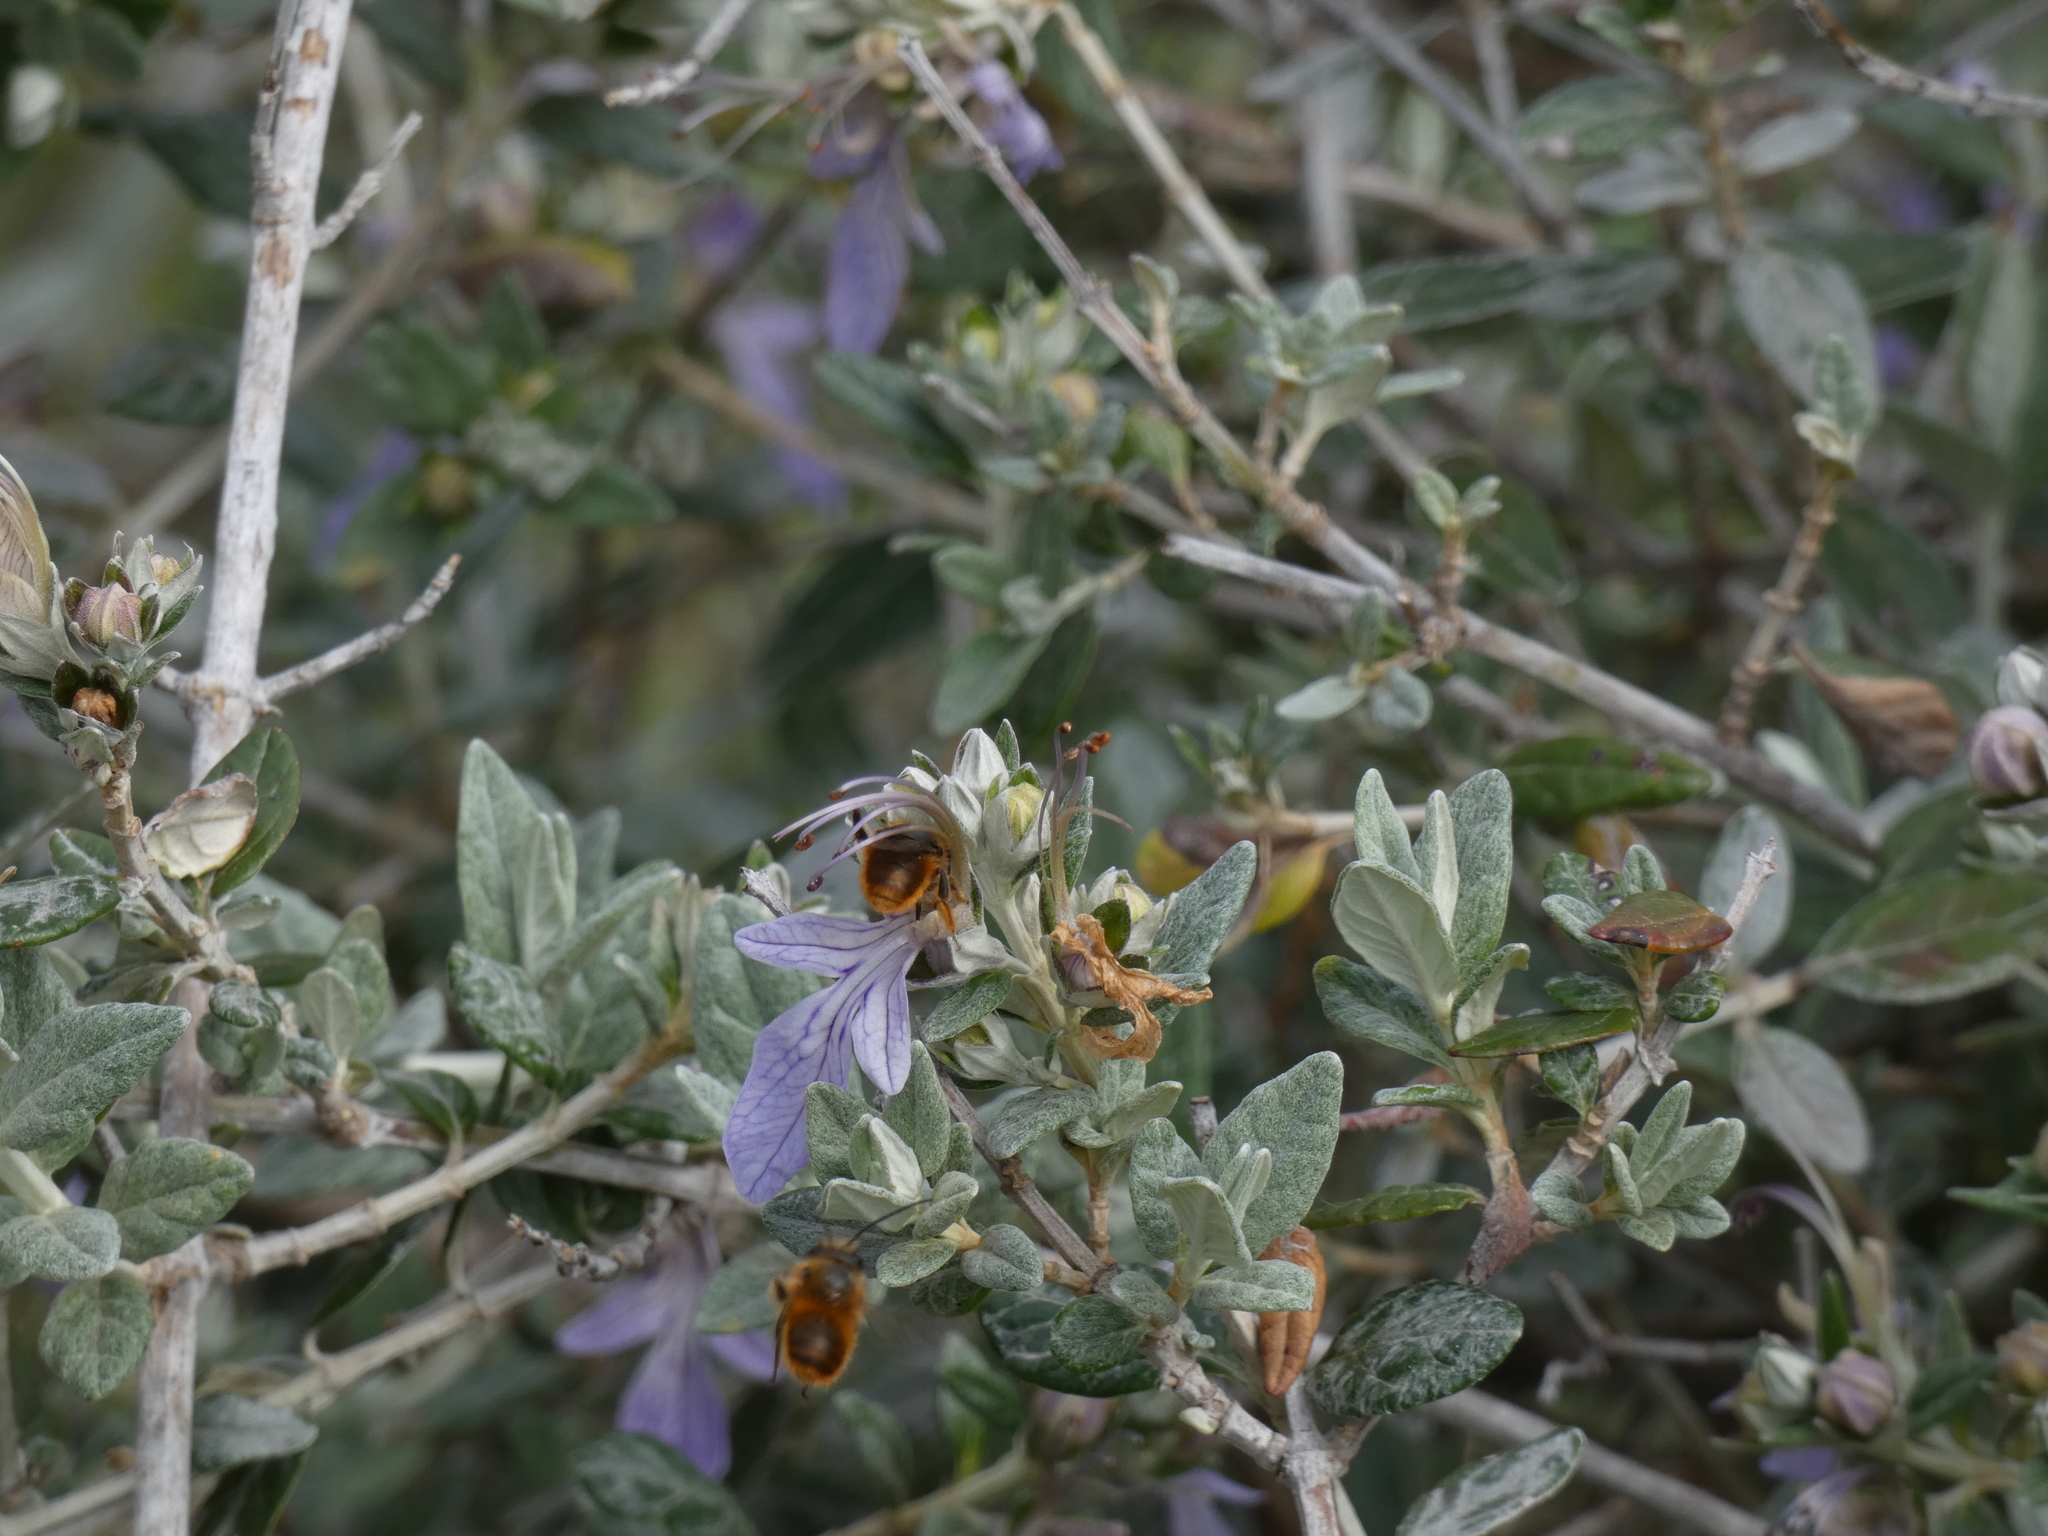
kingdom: Animalia
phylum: Arthropoda
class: Insecta
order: Hymenoptera
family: Megachilidae
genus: Osmia
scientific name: Osmia bicornis
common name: Red mason bee
